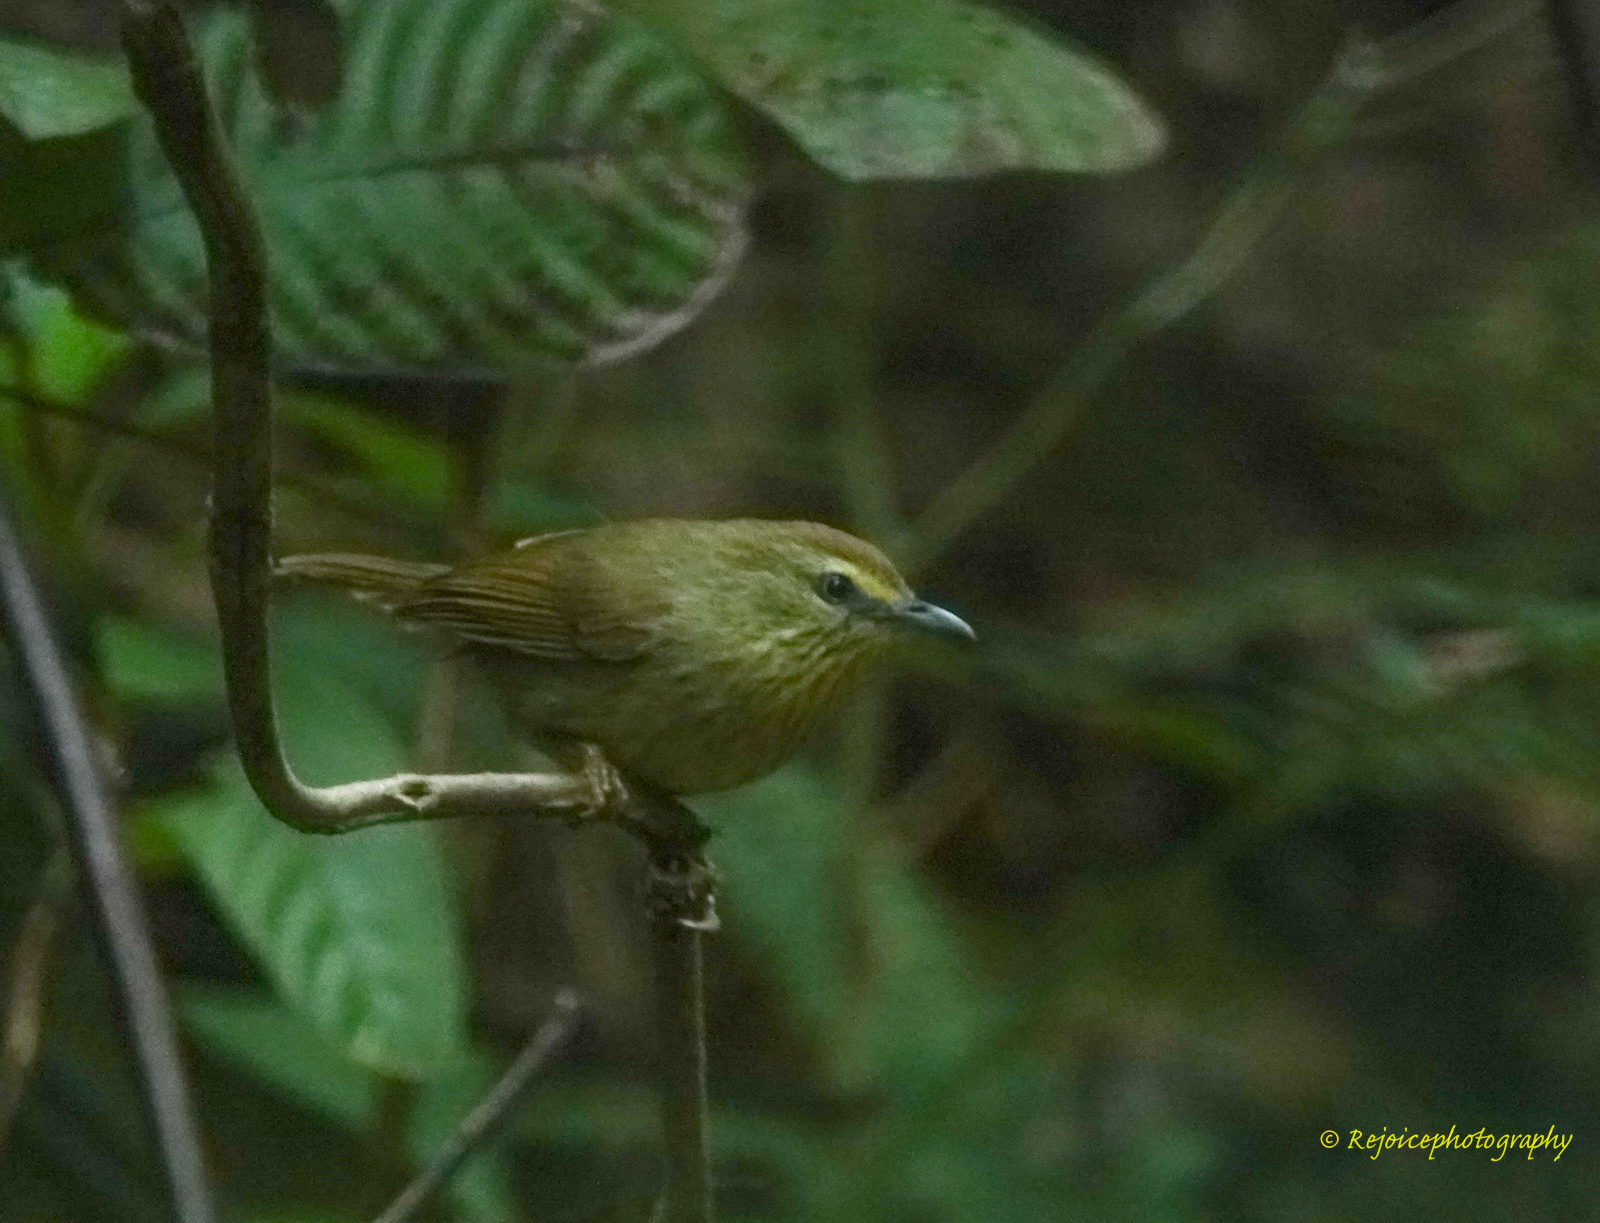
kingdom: Animalia
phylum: Chordata
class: Aves
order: Passeriformes
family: Timaliidae
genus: Macronus
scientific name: Macronus gularis
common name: Striped tit-babbler
